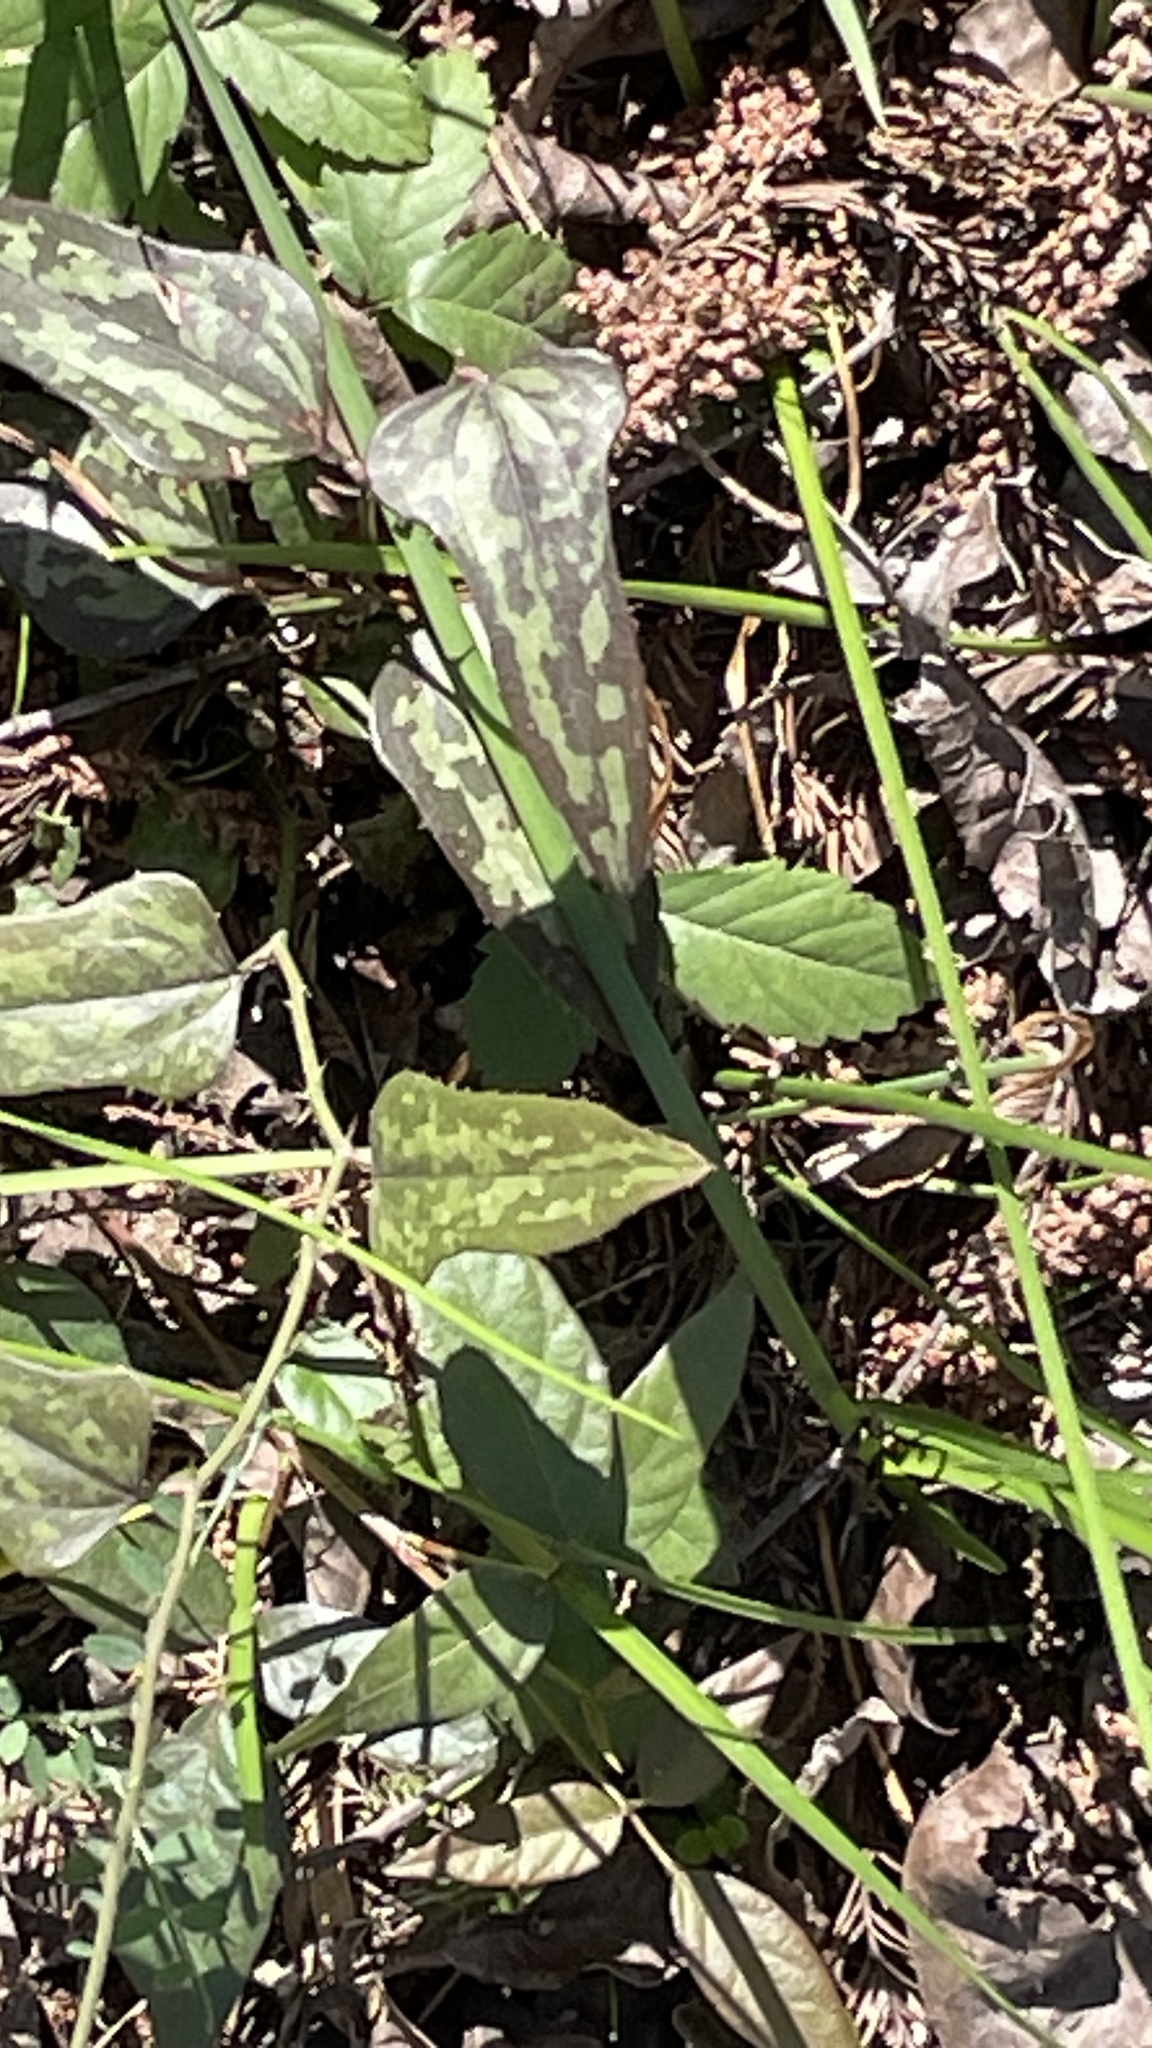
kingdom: Plantae
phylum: Tracheophyta
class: Liliopsida
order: Liliales
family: Smilacaceae
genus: Smilax
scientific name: Smilax bona-nox
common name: Catbrier
